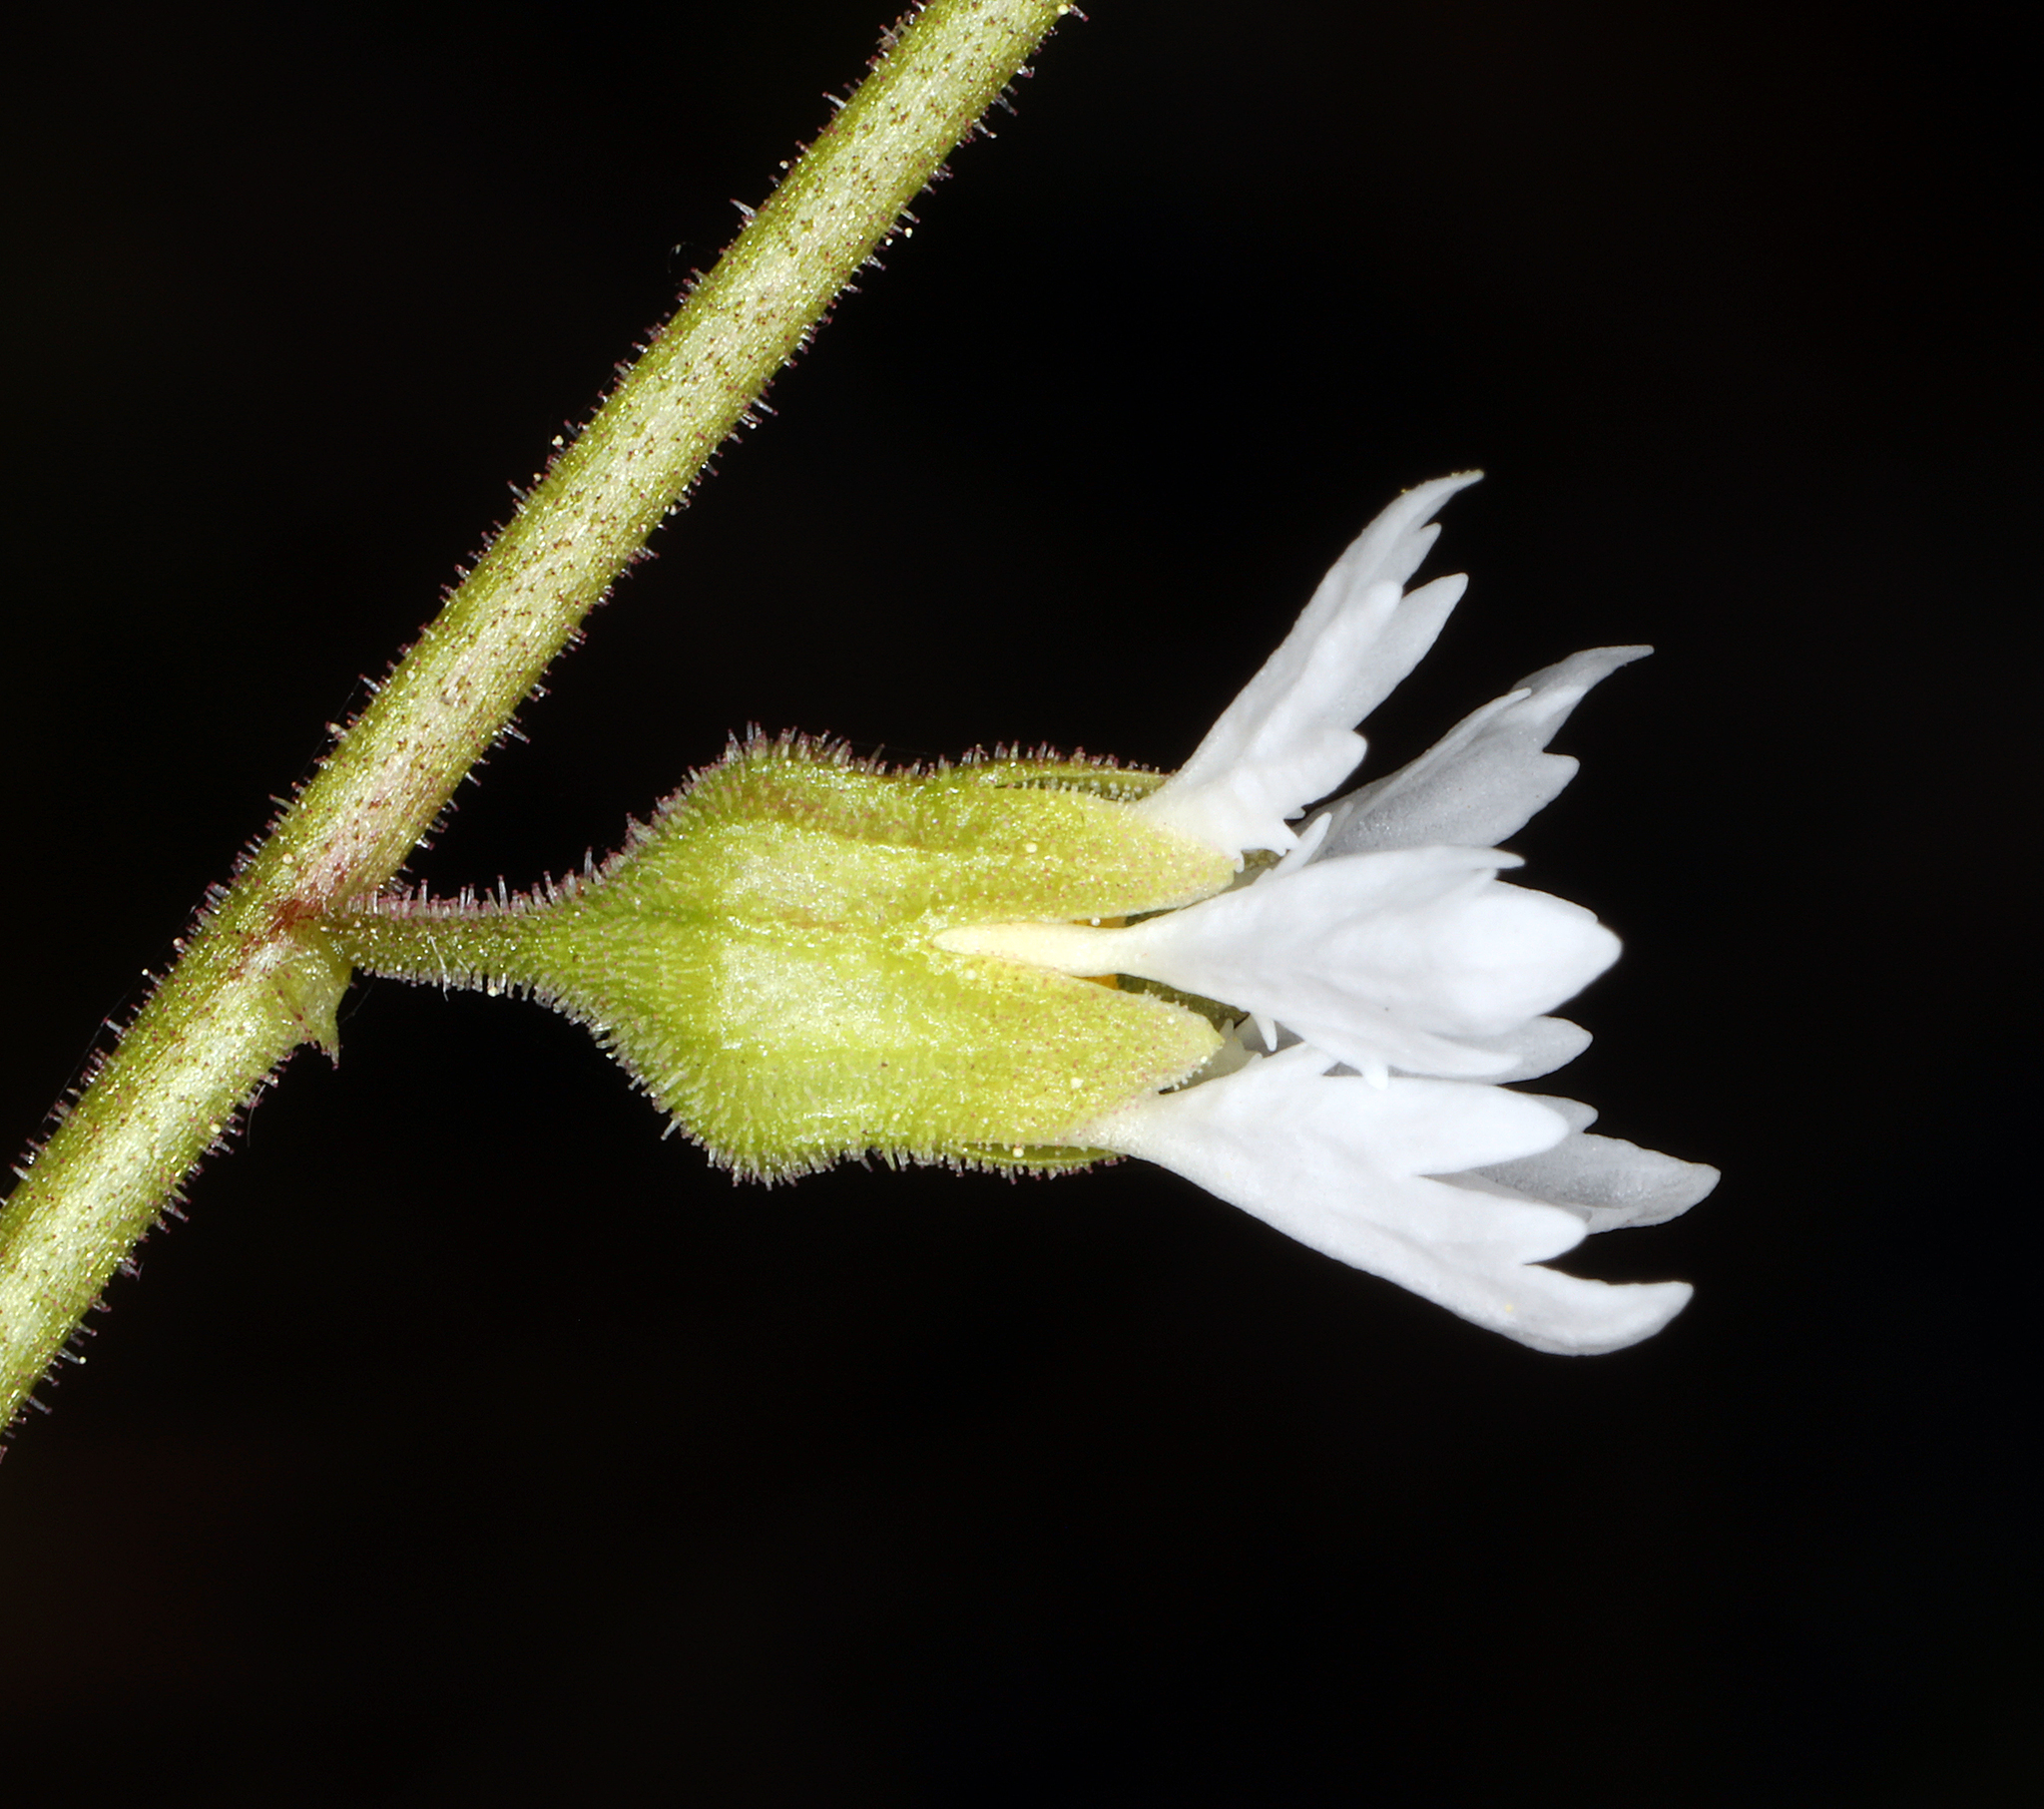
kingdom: Plantae
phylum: Tracheophyta
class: Magnoliopsida
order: Saxifragales
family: Saxifragaceae
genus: Lithophragma
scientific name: Lithophragma campanulatum
